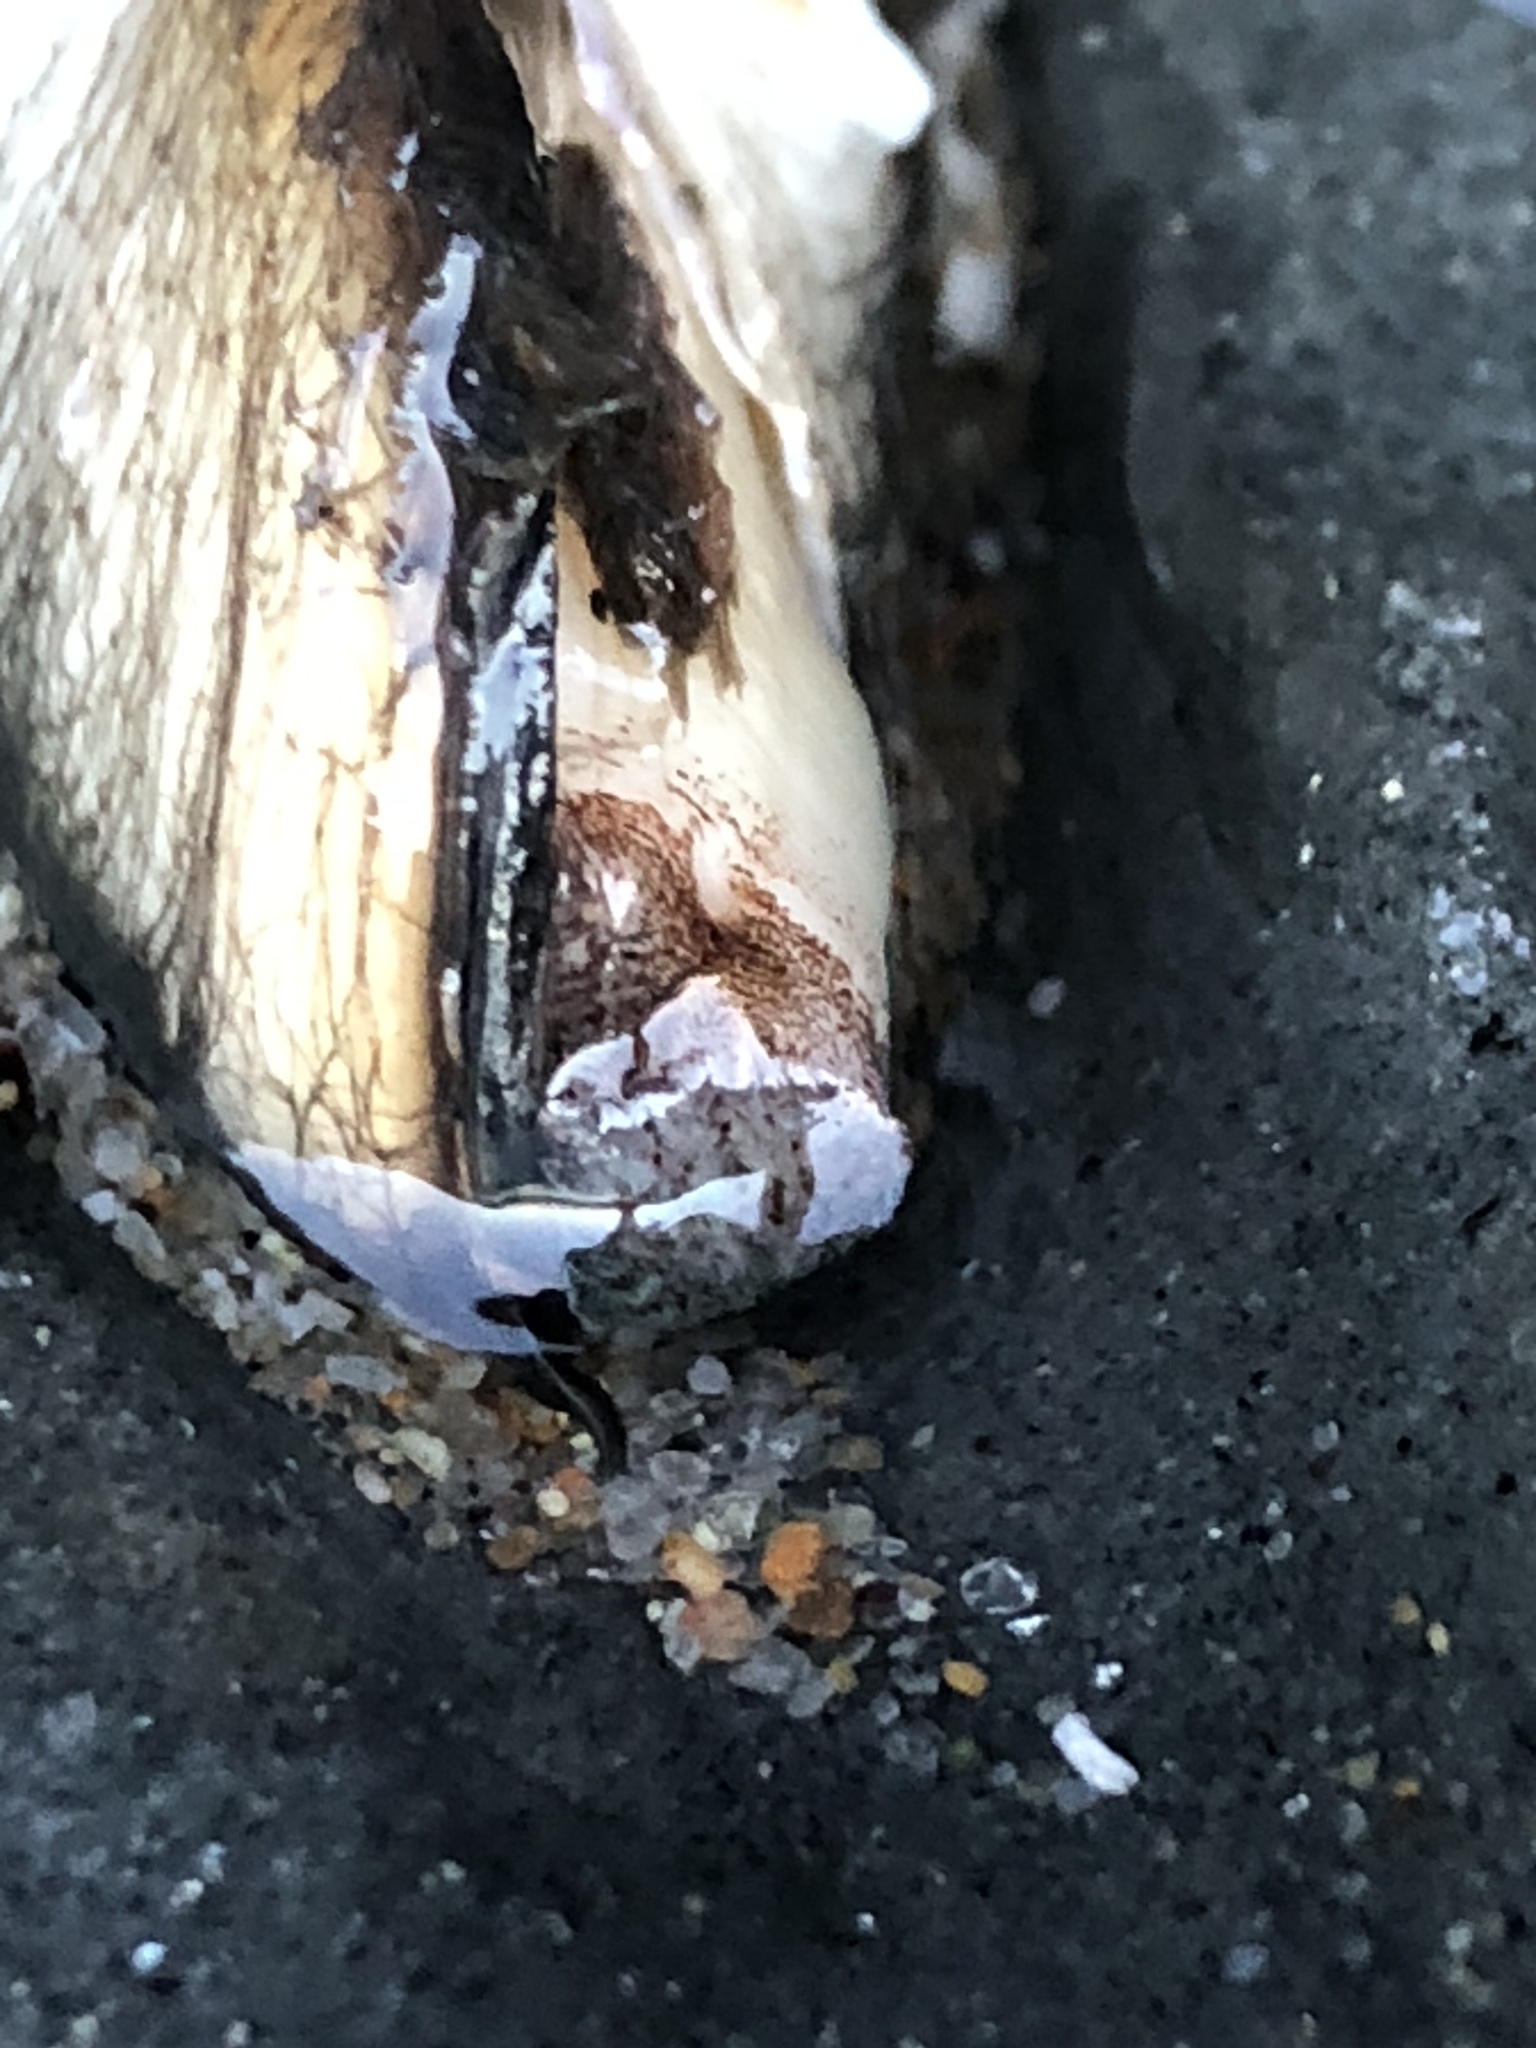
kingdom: Animalia
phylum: Mollusca
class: Bivalvia
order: Myida
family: Pholadidae
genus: Penitella
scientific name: Penitella penita
